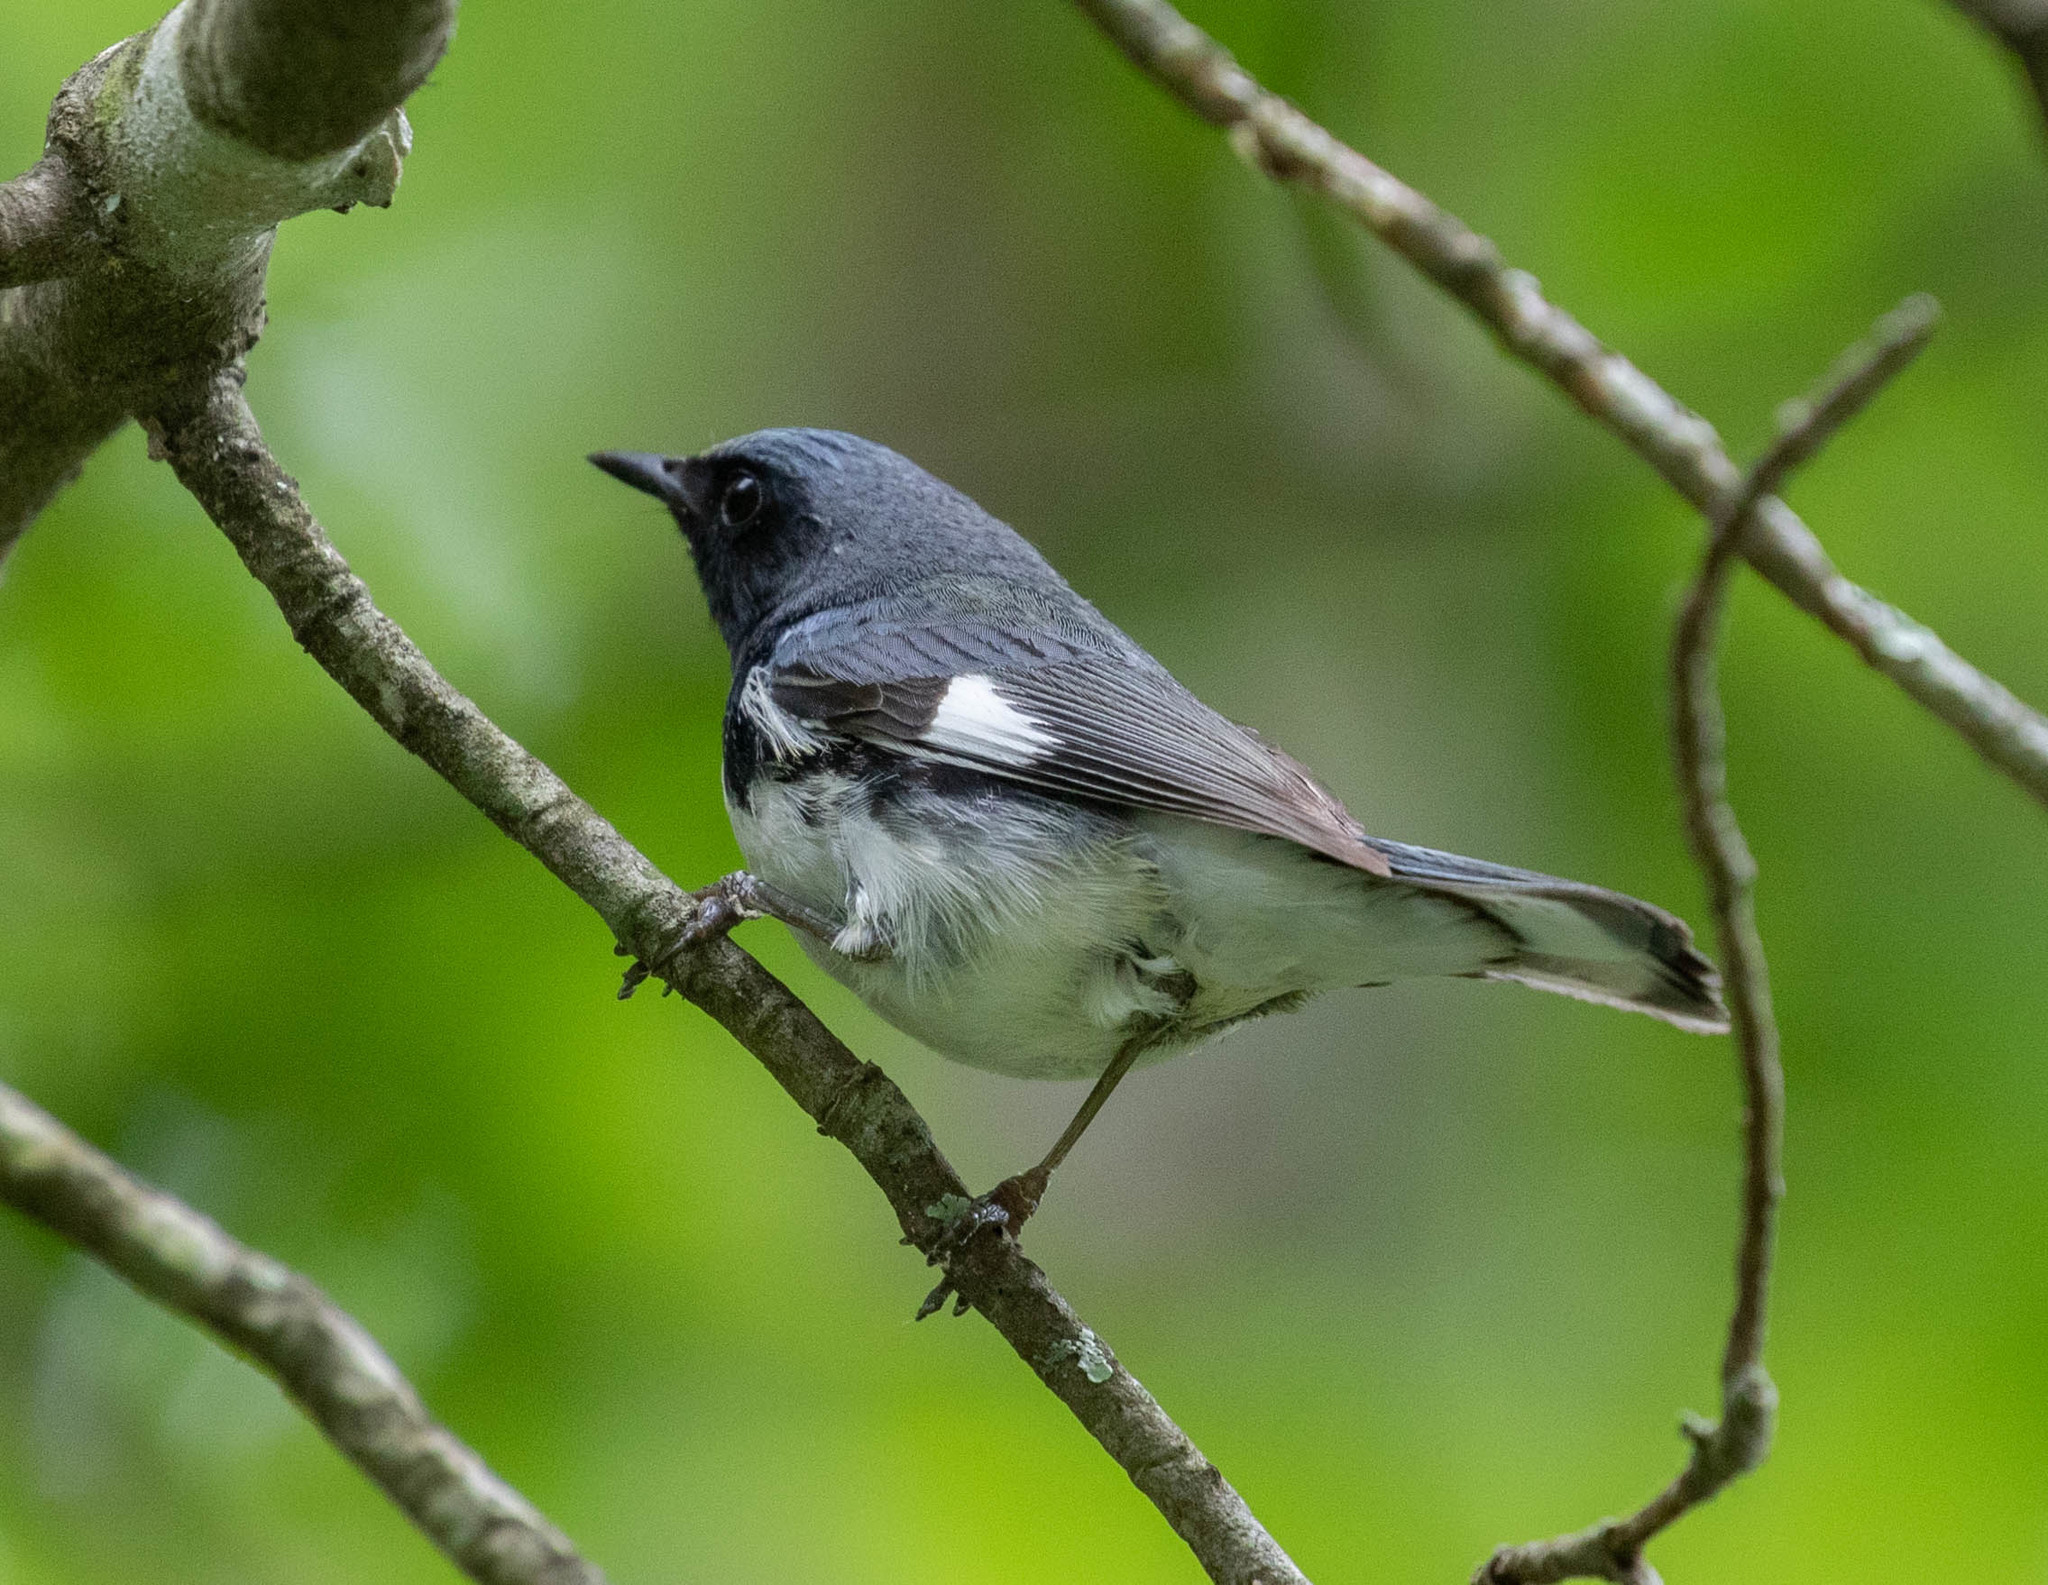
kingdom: Animalia
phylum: Chordata
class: Aves
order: Passeriformes
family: Parulidae
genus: Setophaga
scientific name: Setophaga caerulescens
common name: Black-throated blue warbler
